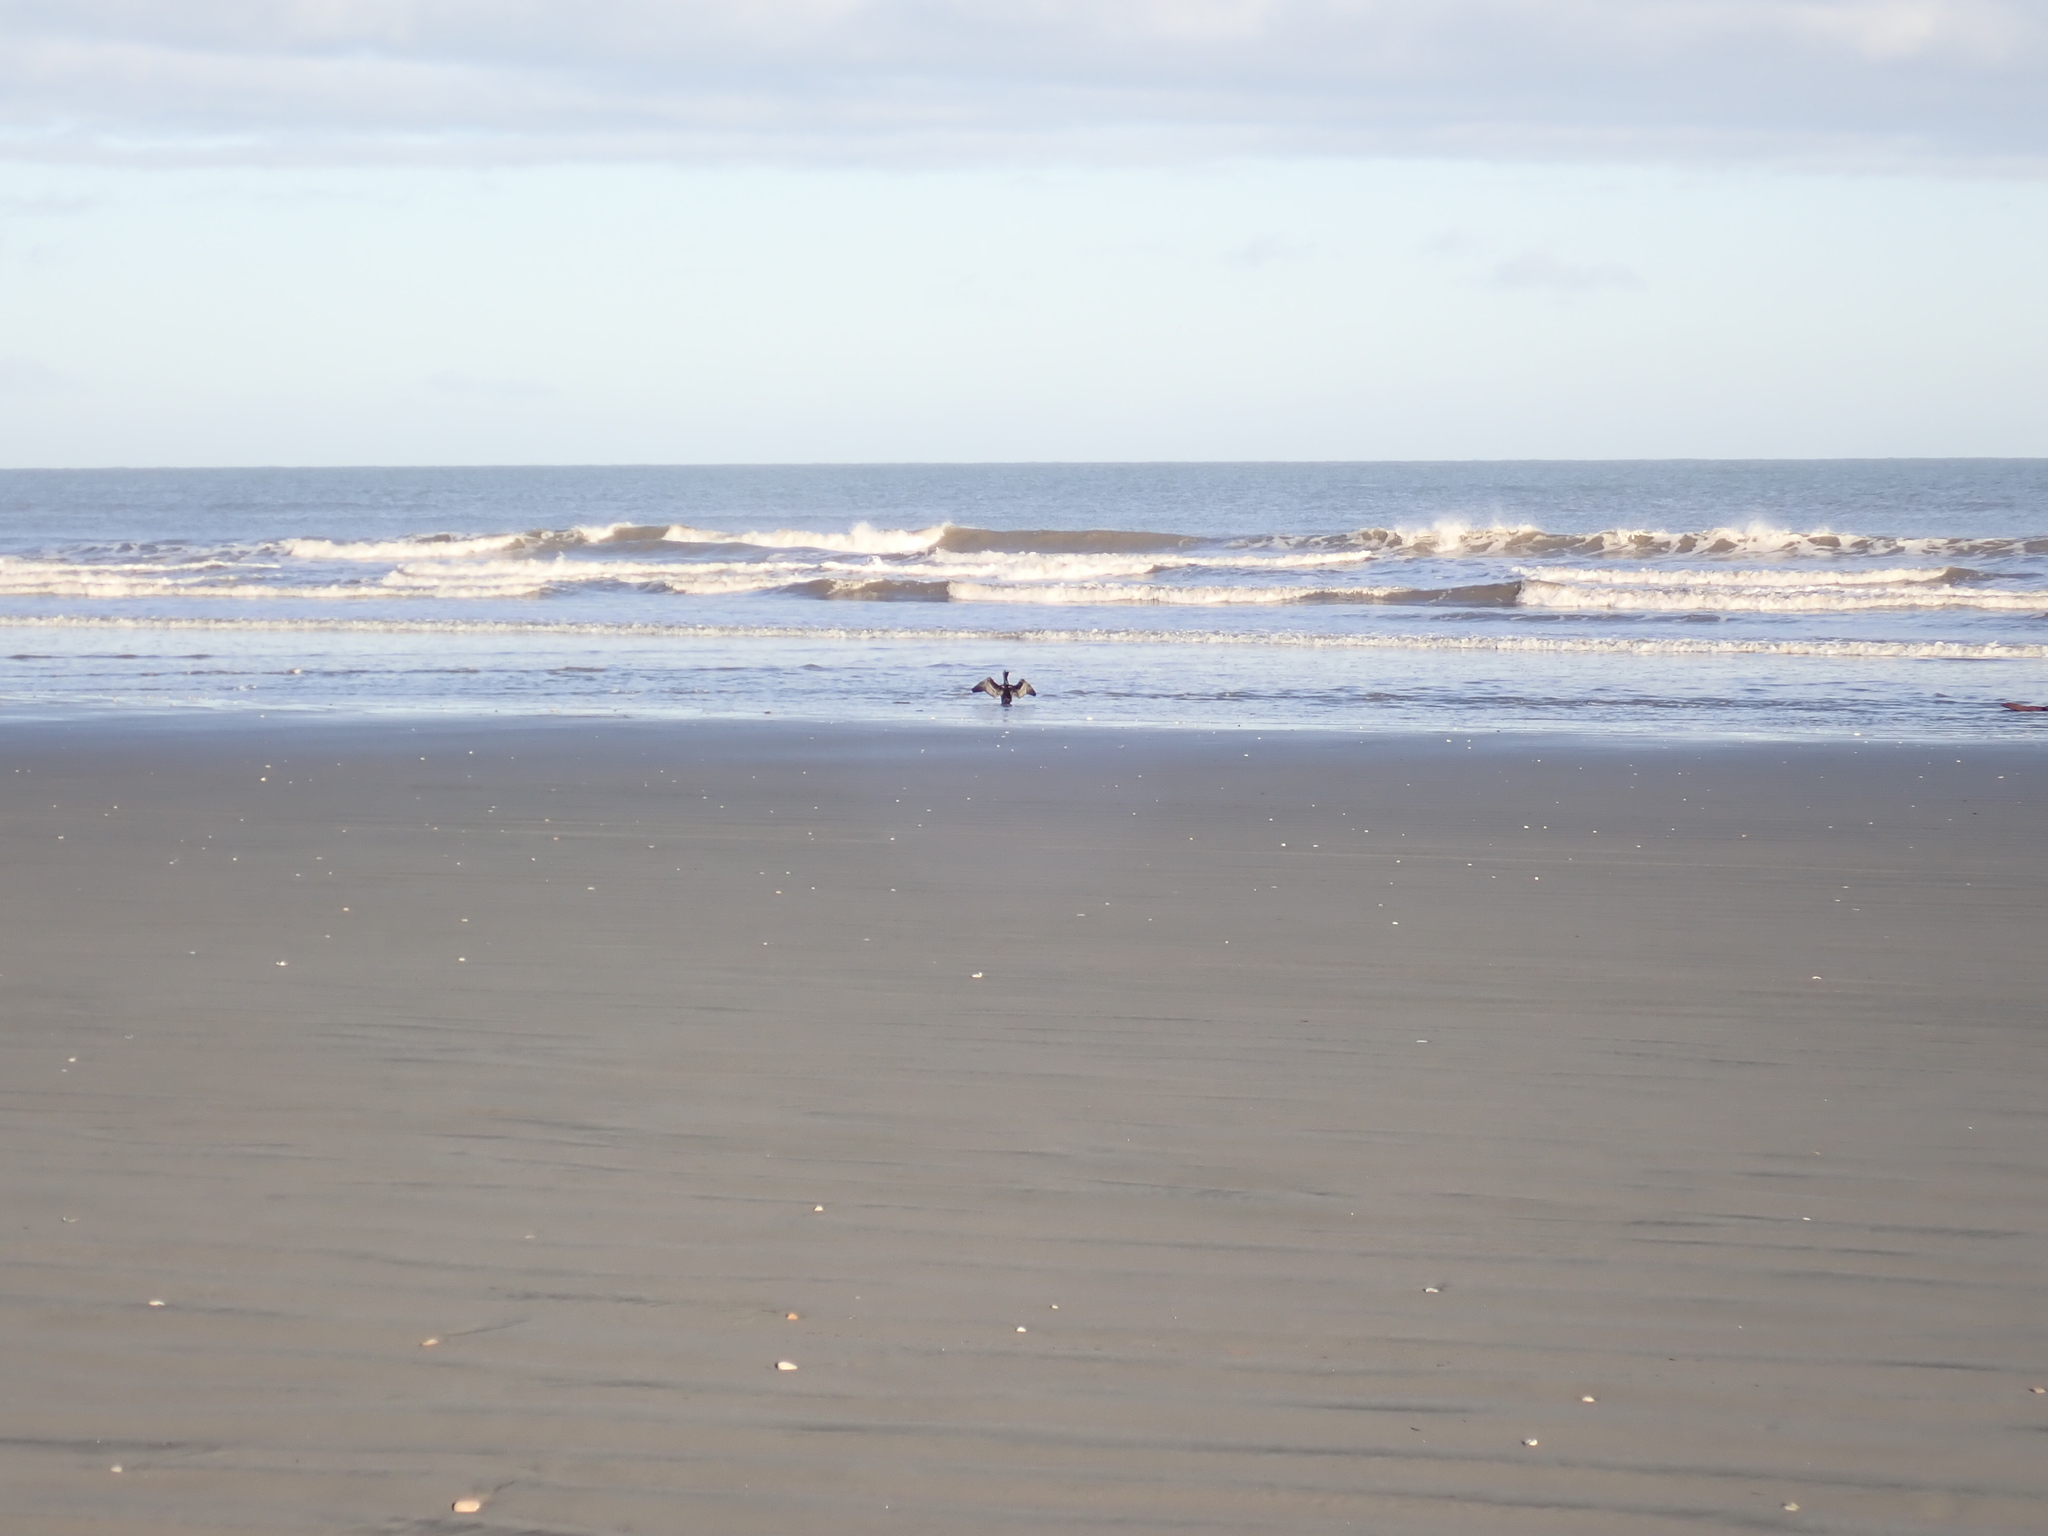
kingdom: Animalia
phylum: Chordata
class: Aves
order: Suliformes
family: Phalacrocoracidae
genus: Phalacrocorax
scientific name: Phalacrocorax varius
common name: Pied cormorant
